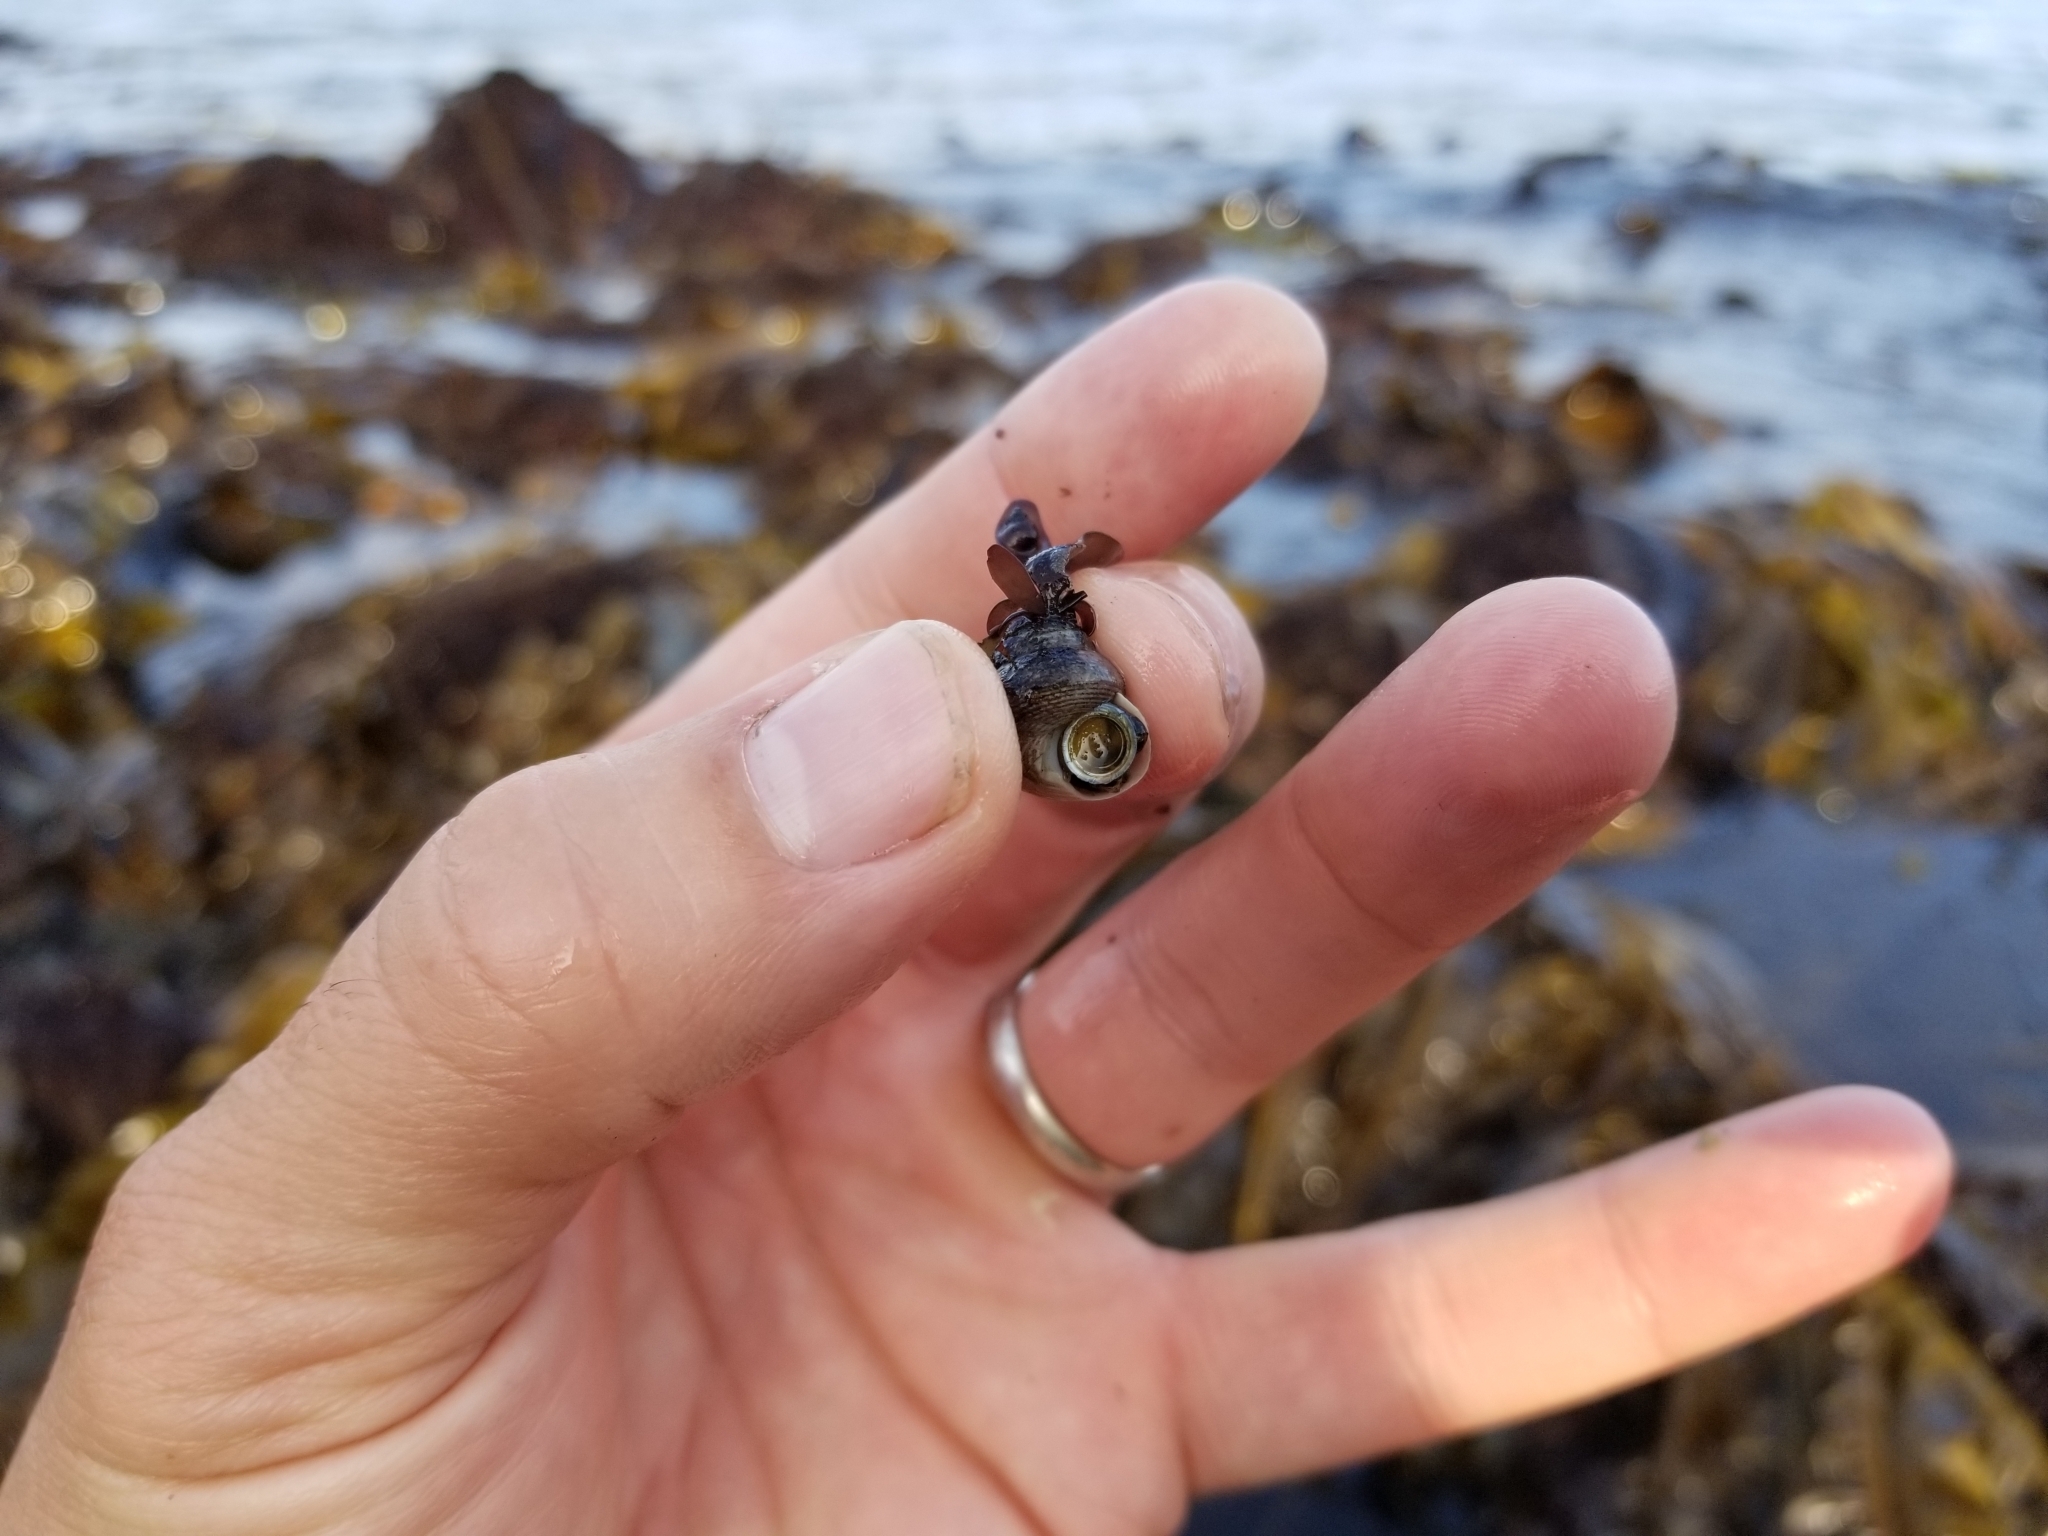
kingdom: Animalia
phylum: Mollusca
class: Gastropoda
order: Trochida
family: Margaritidae
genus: Margarites
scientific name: Margarites pupillus
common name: Puppet margarite
